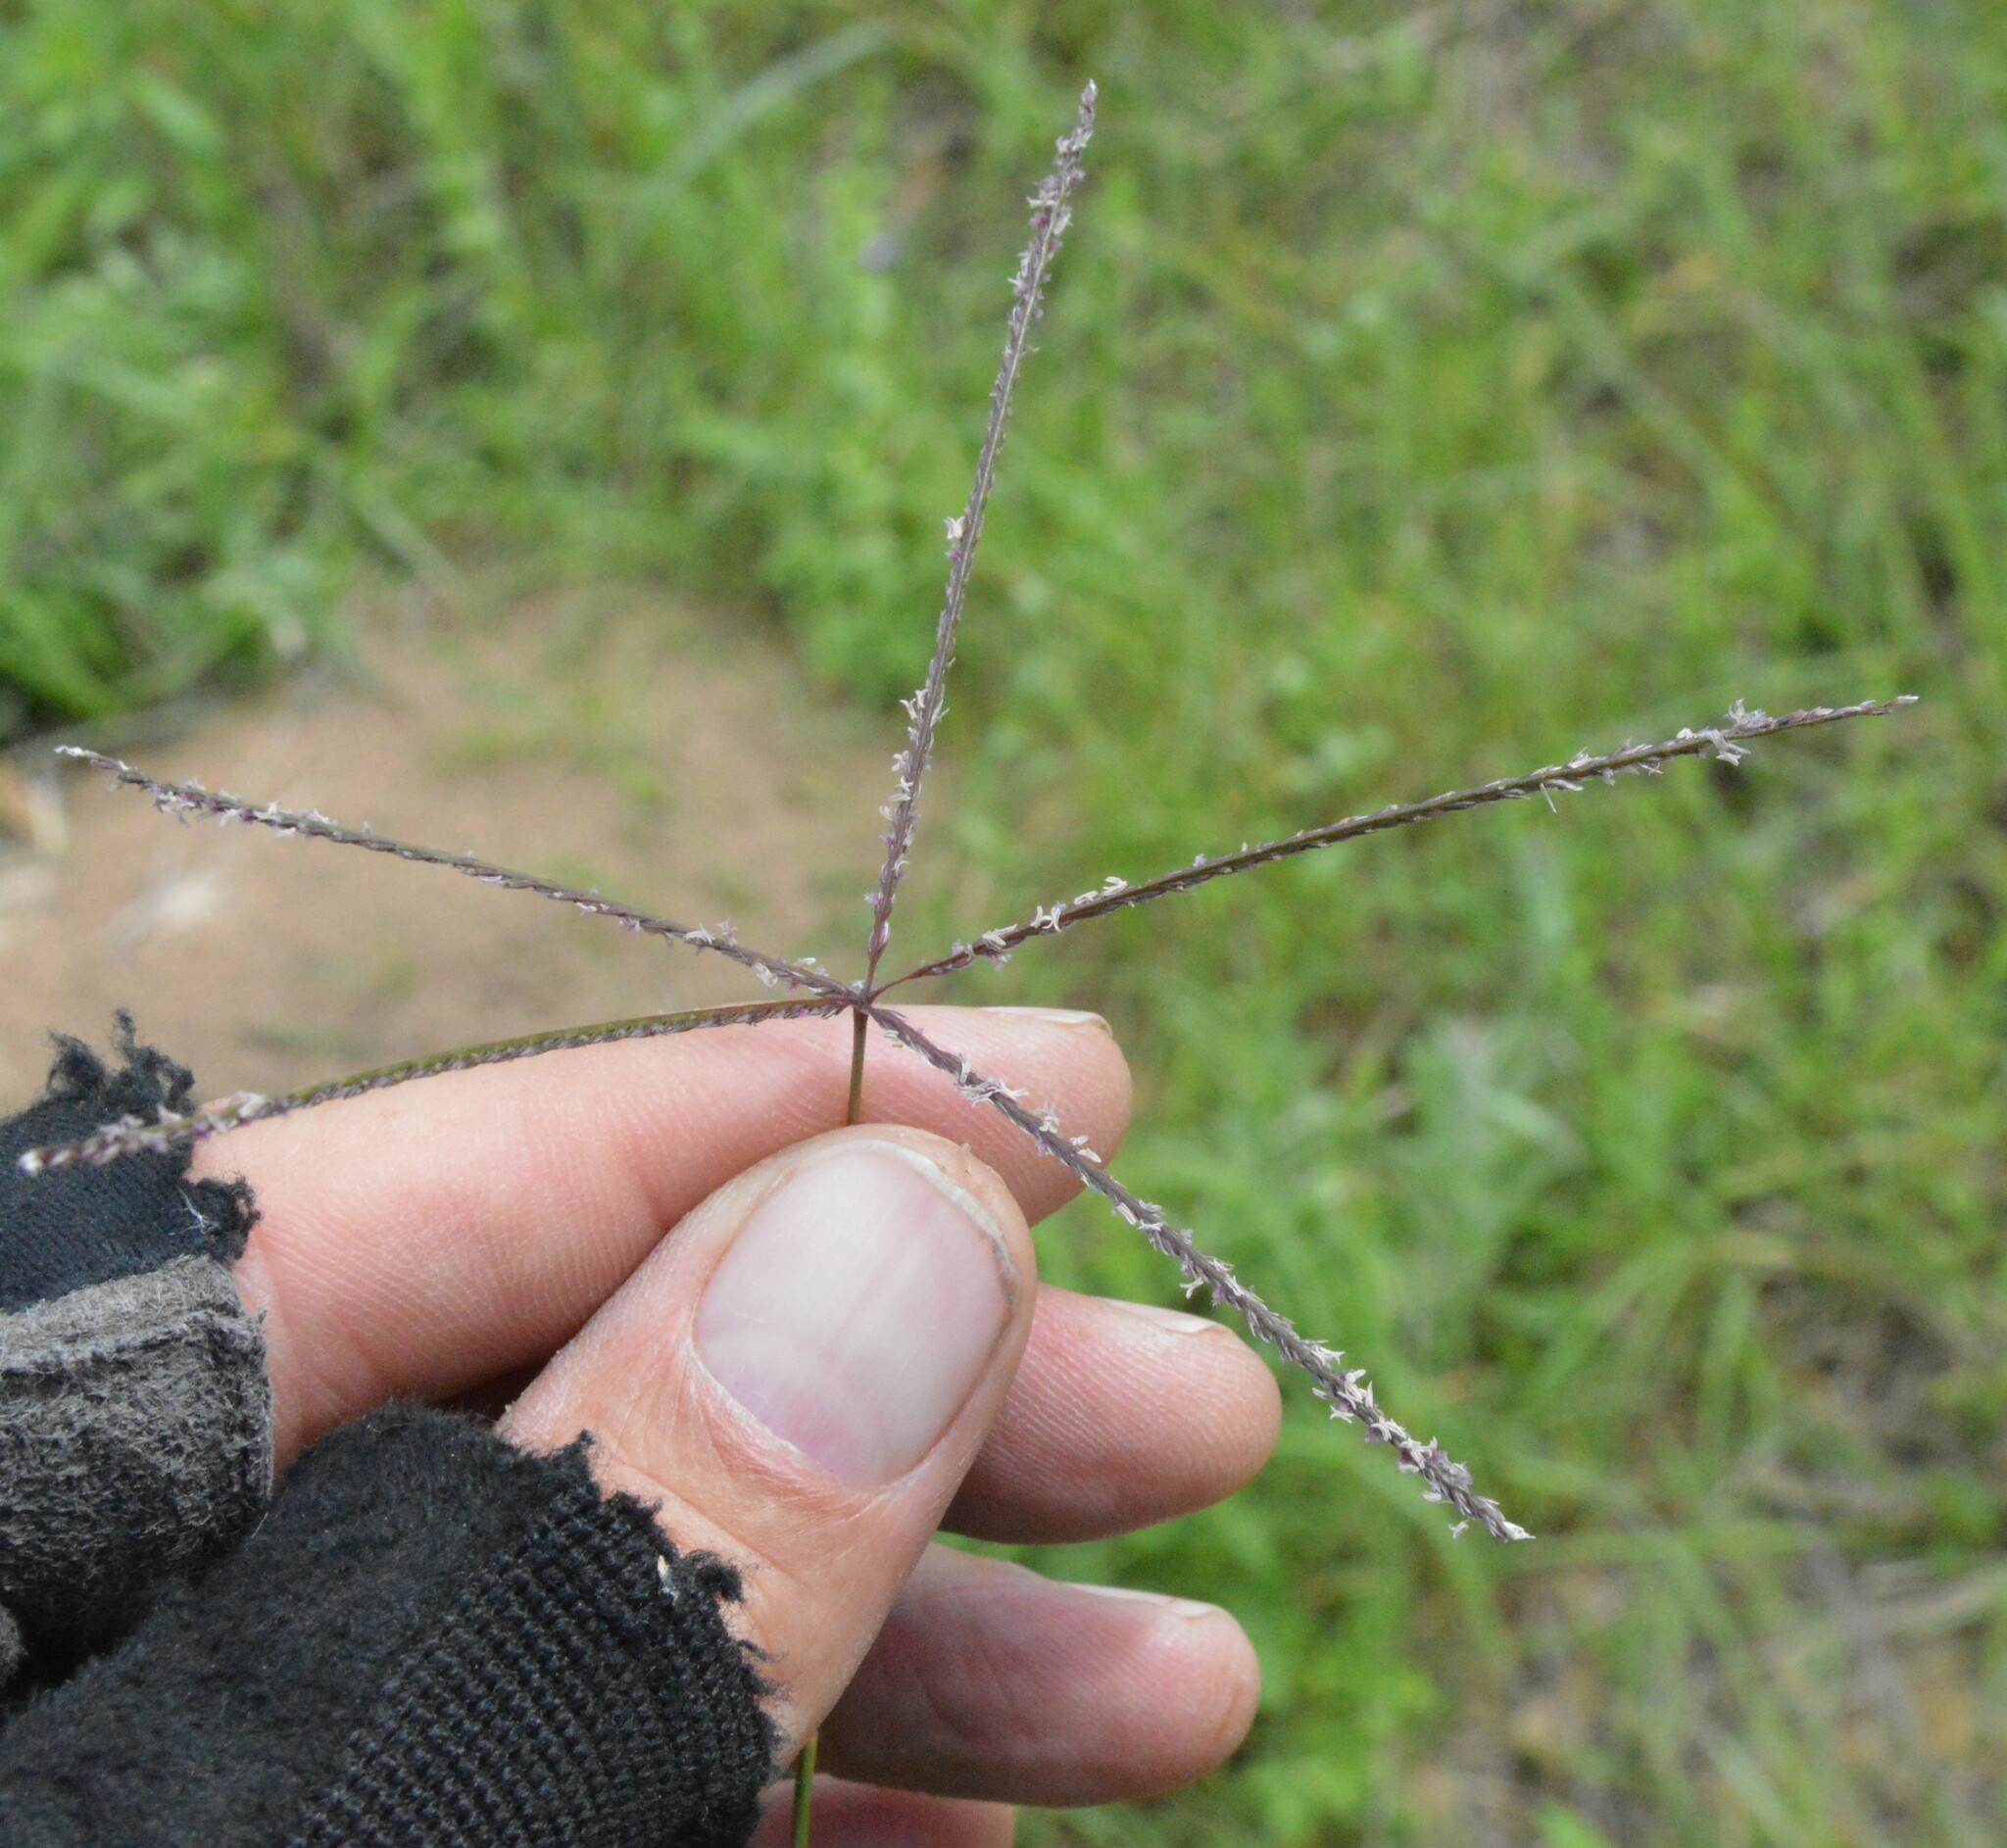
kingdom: Plantae
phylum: Tracheophyta
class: Liliopsida
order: Poales
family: Poaceae
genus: Cynodon
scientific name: Cynodon dactylon
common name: Bermuda grass
